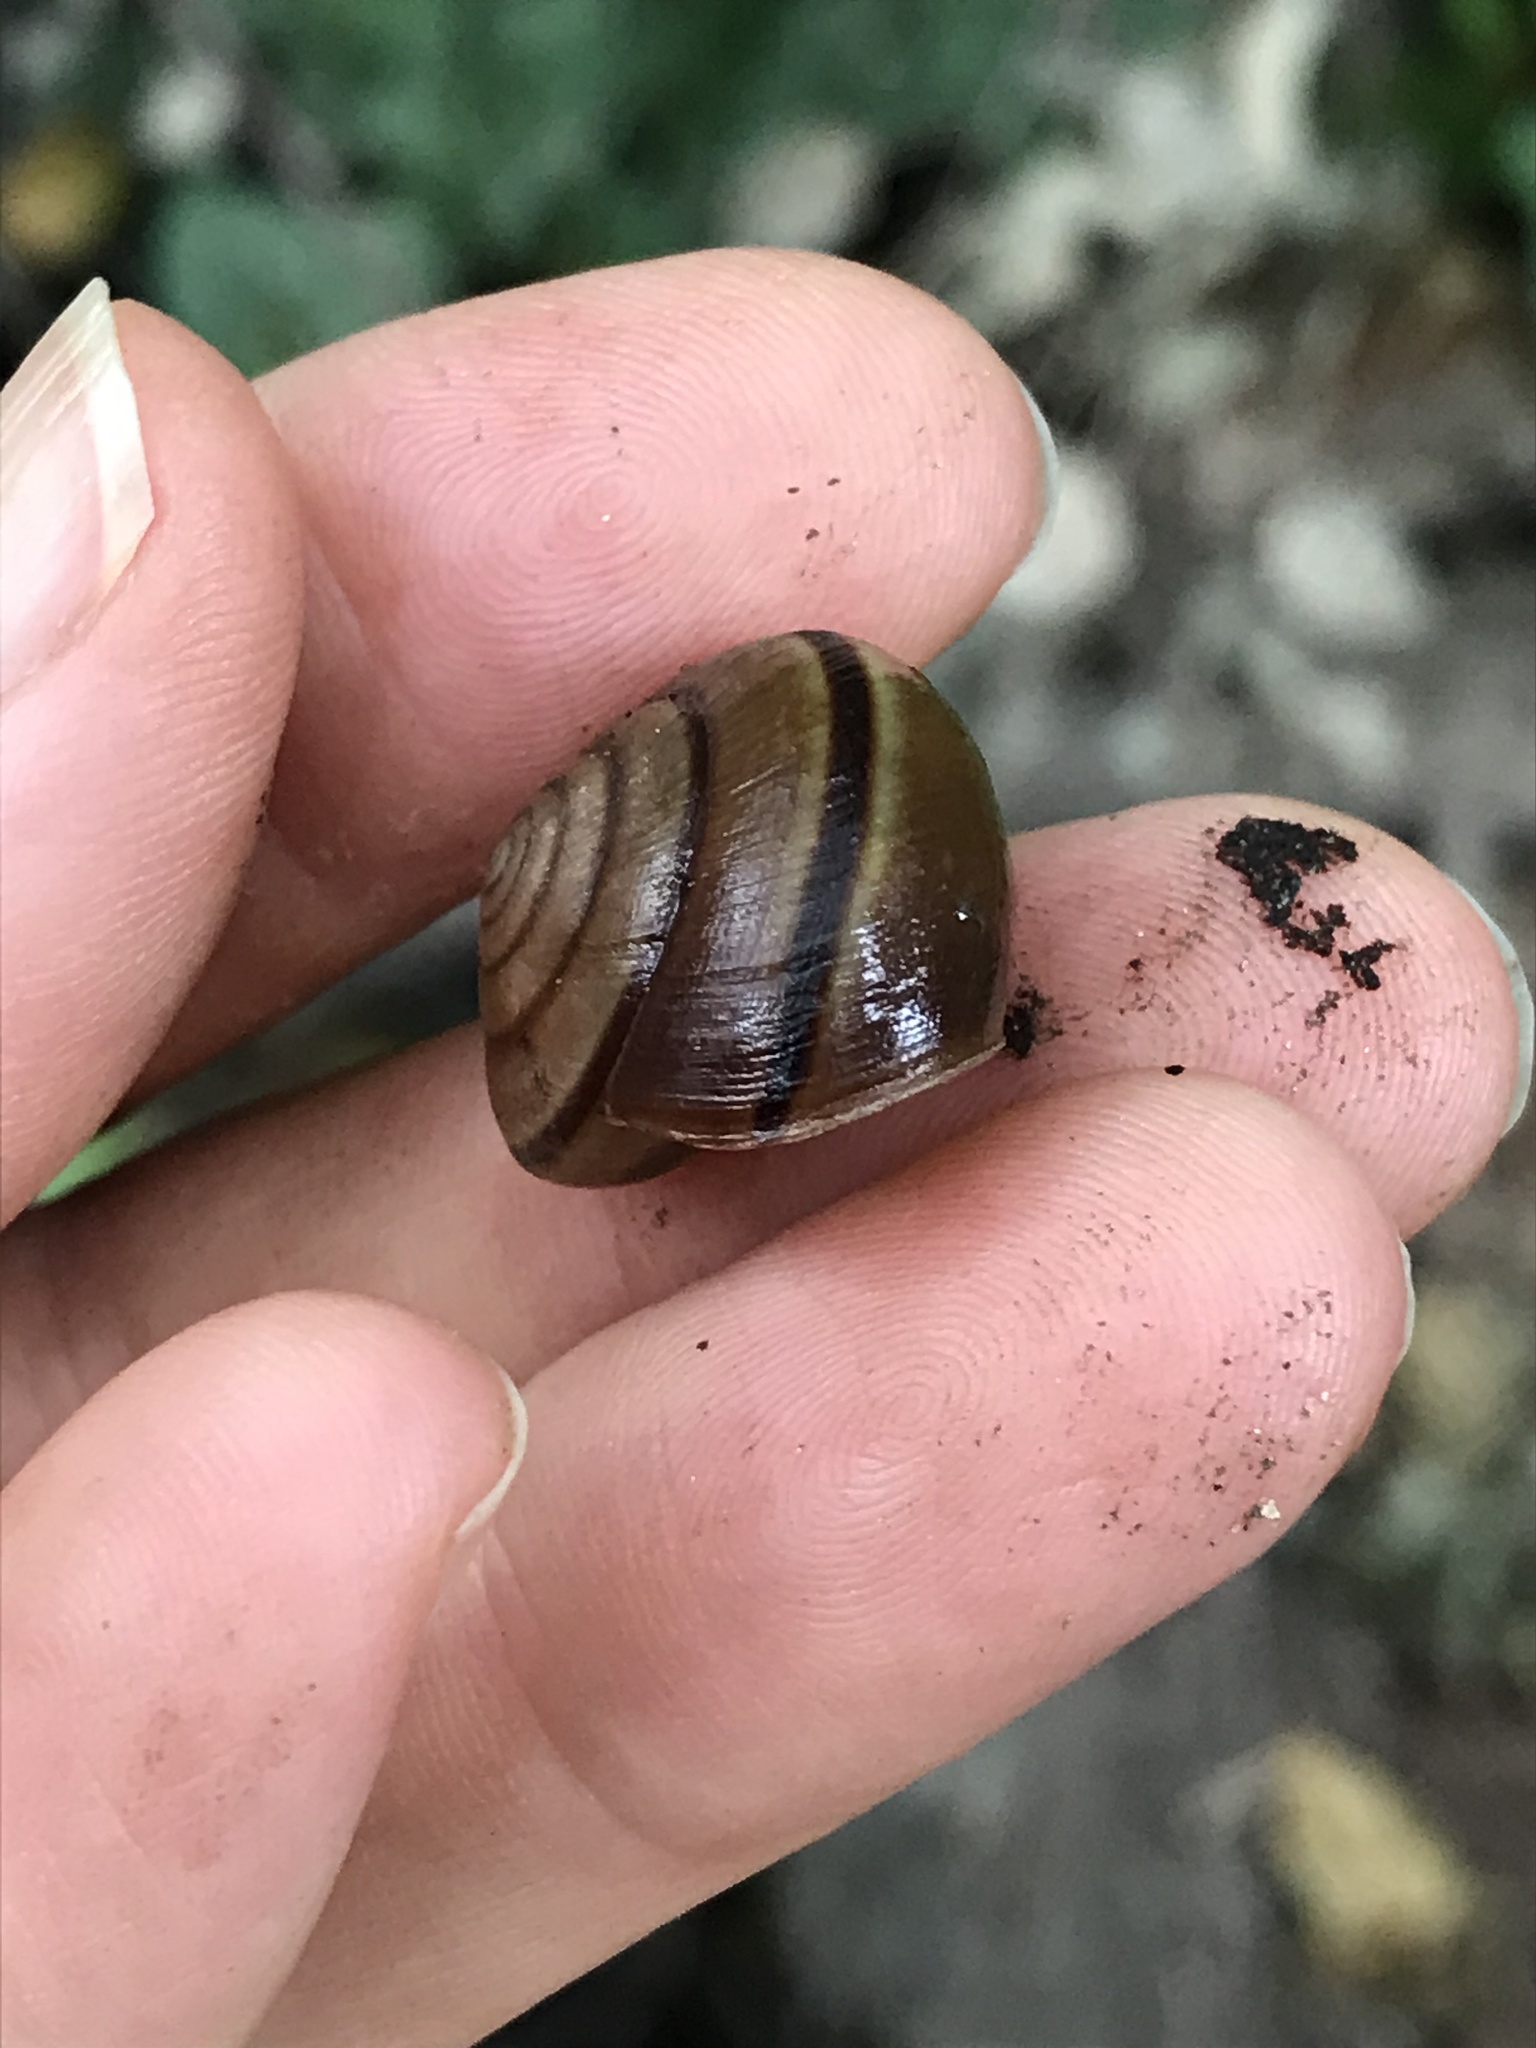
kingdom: Animalia
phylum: Mollusca
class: Gastropoda
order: Stylommatophora
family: Xanthonychidae
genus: Helminthoglypta
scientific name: Helminthoglypta traskii
